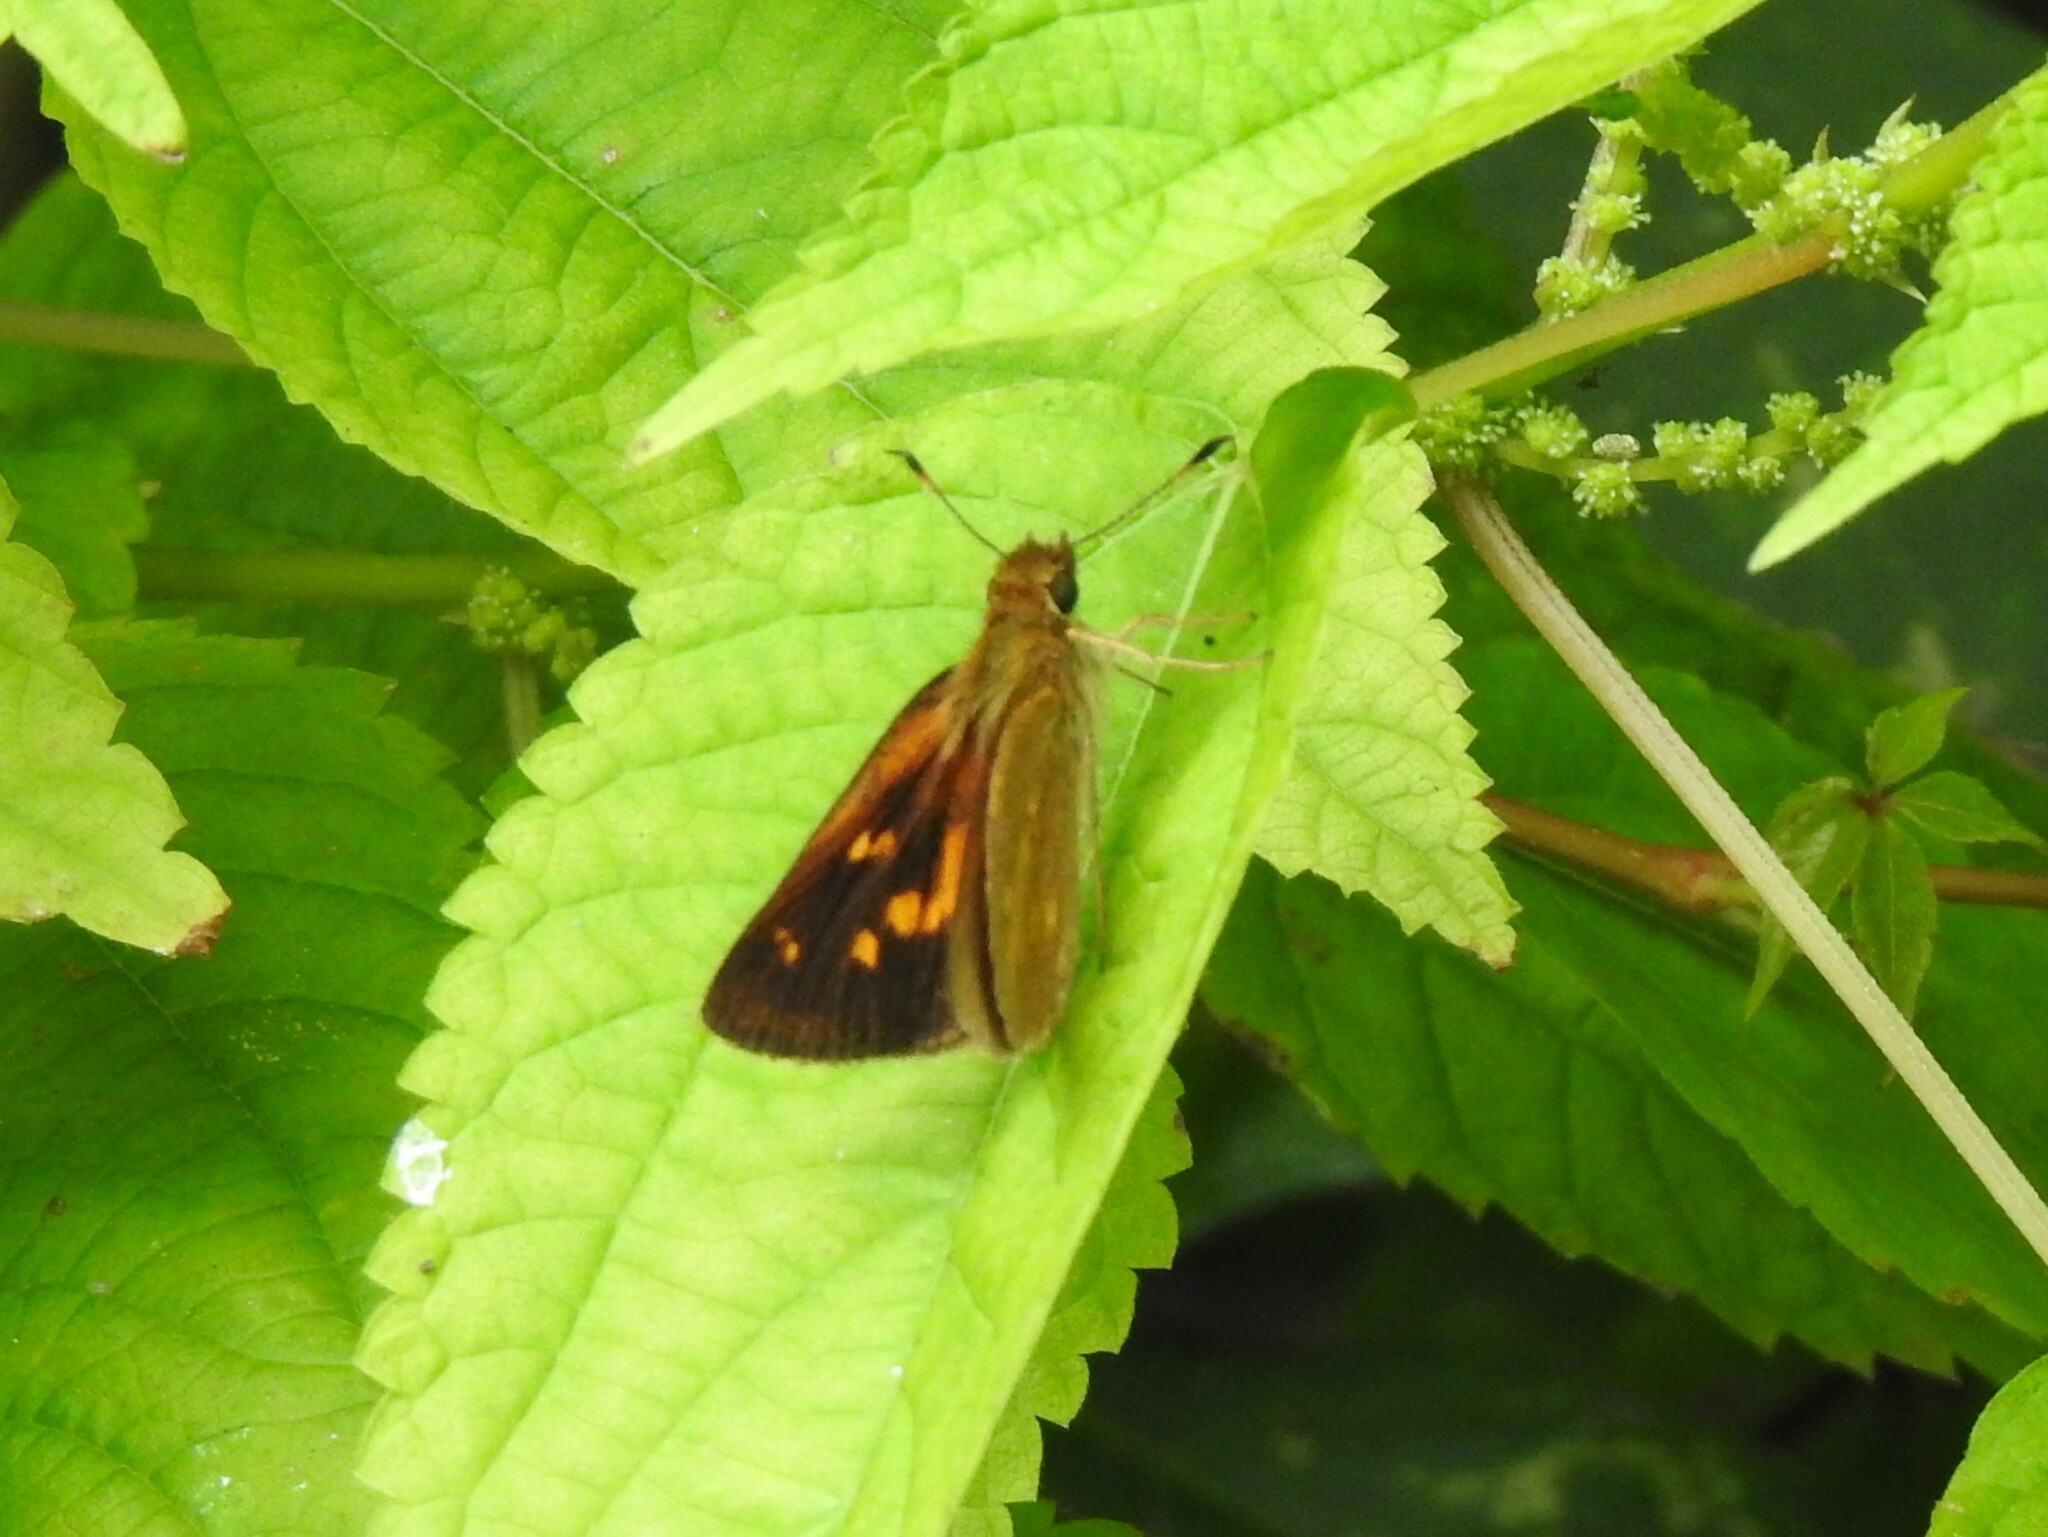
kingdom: Animalia
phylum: Arthropoda
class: Insecta
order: Lepidoptera
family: Hesperiidae
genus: Poanes
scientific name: Poanes viator
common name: Broad-winged skipper
